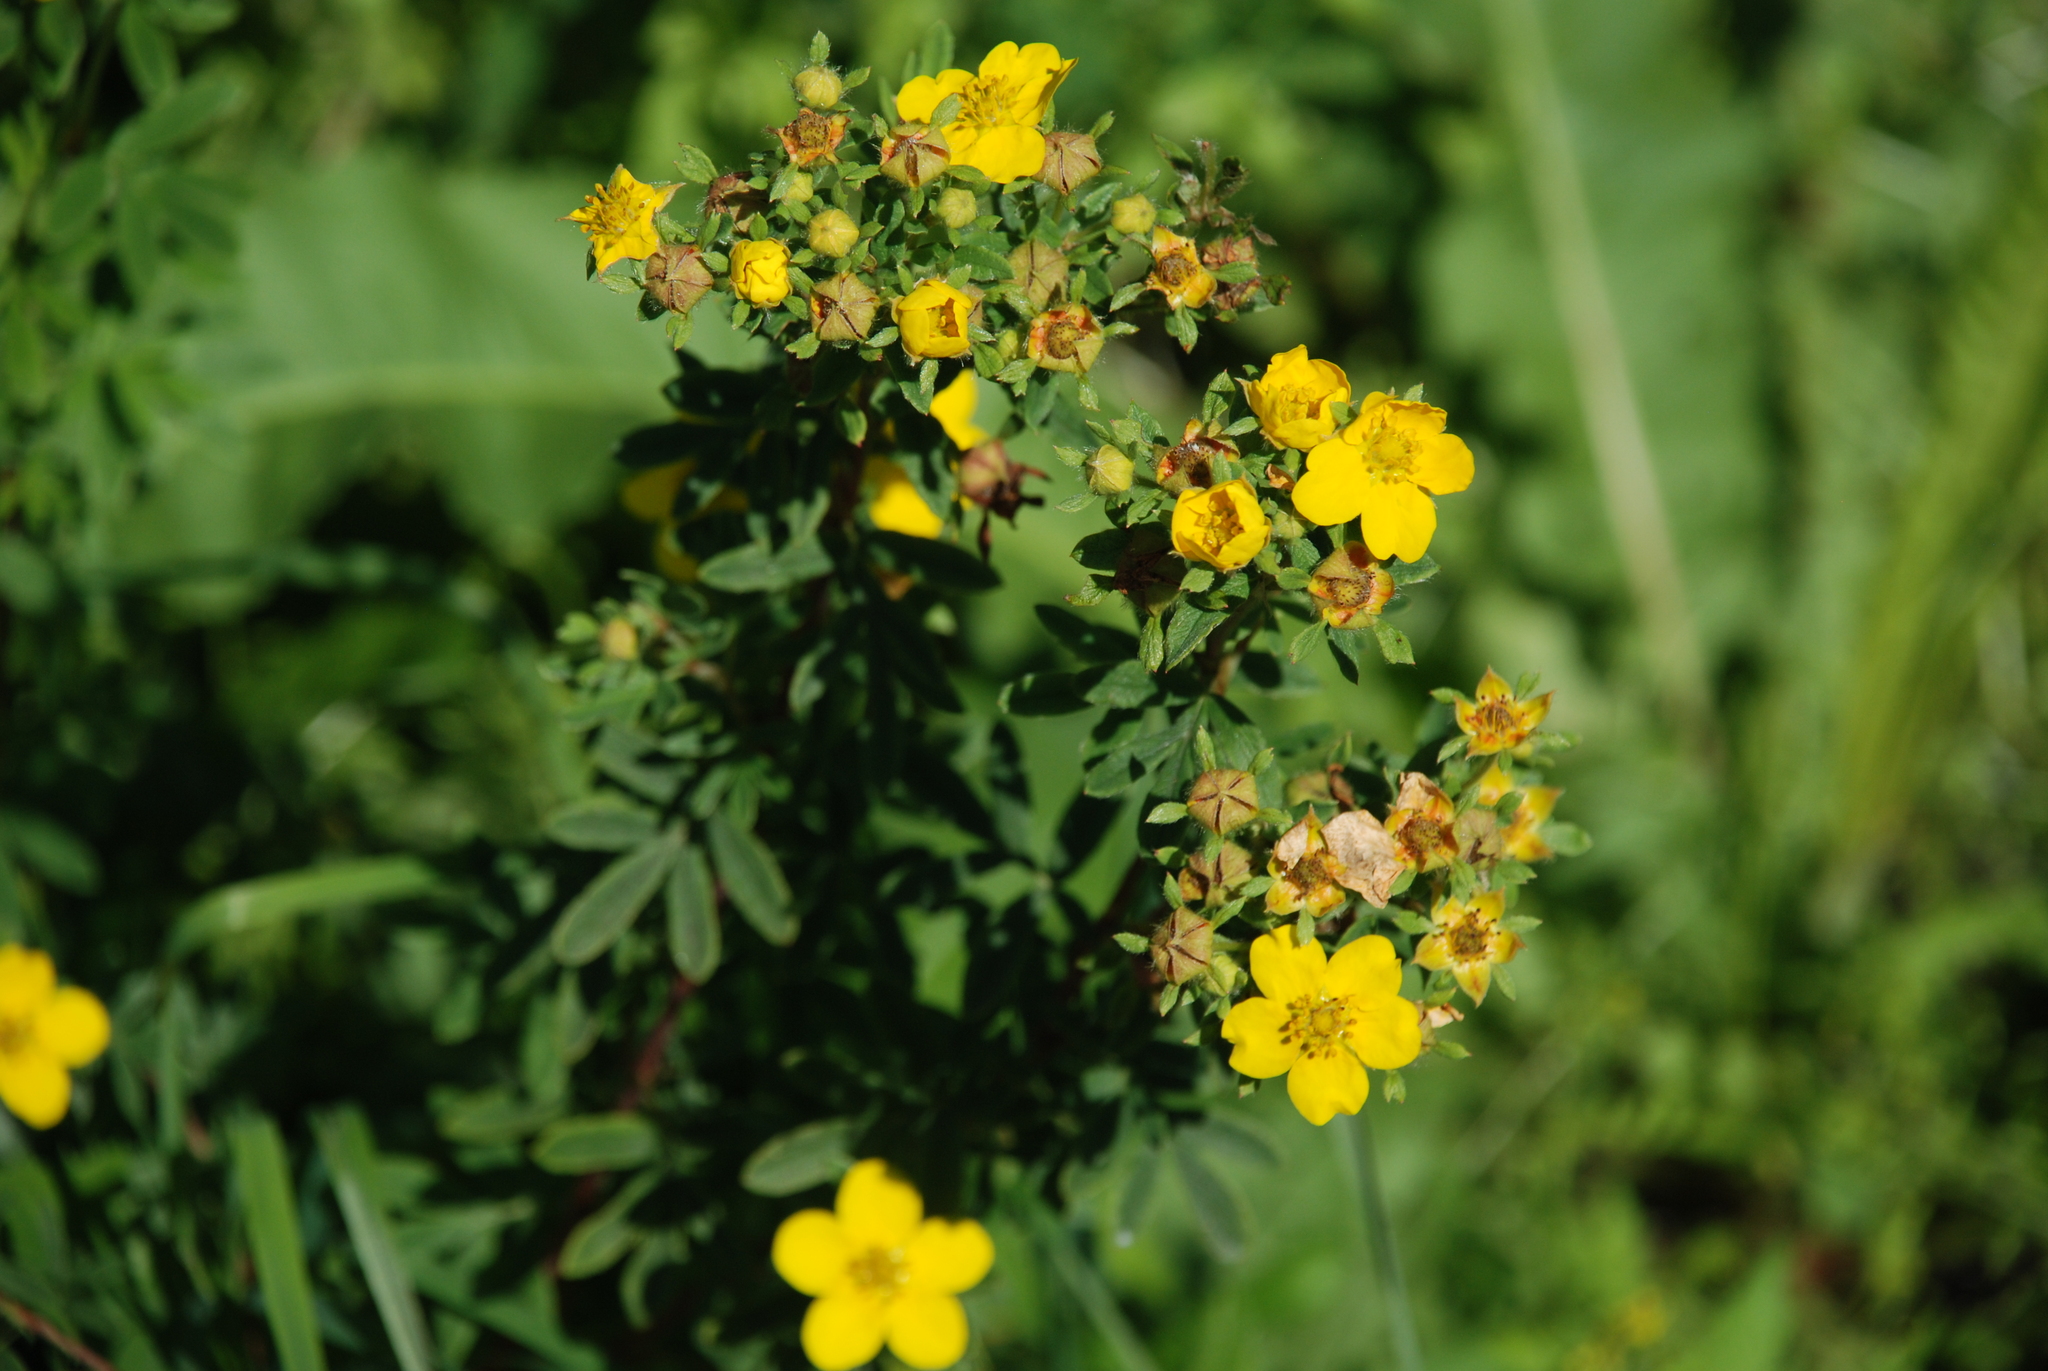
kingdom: Plantae
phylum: Tracheophyta
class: Magnoliopsida
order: Rosales
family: Rosaceae
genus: Dasiphora
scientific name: Dasiphora fruticosa
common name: Shrubby cinquefoil
